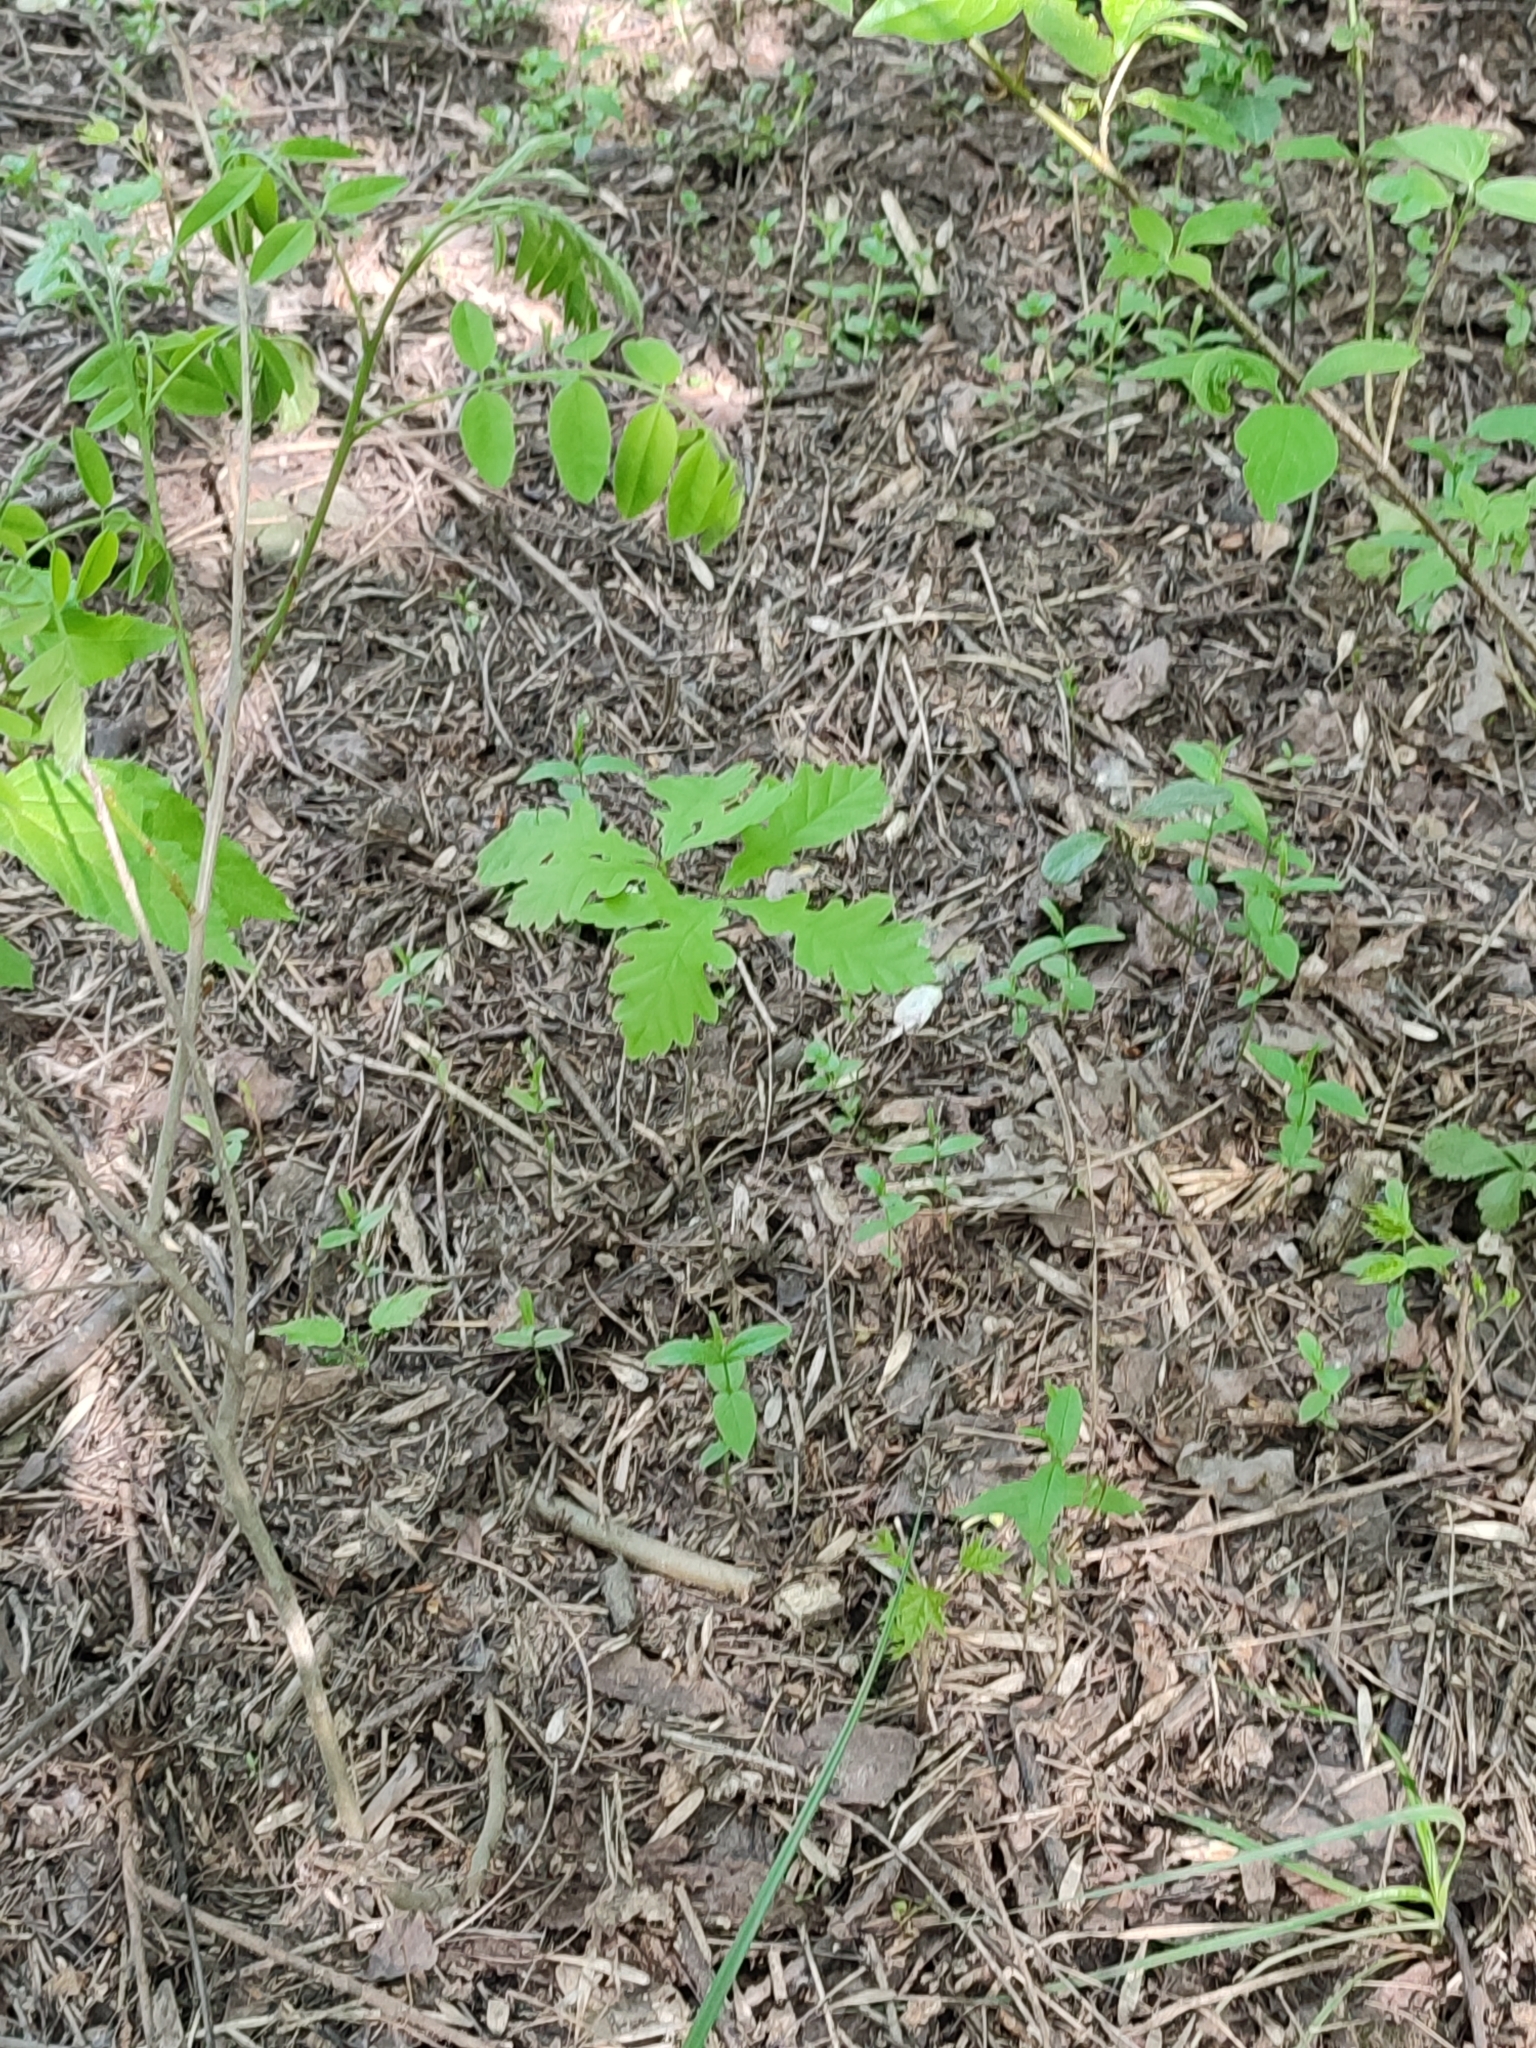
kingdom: Plantae
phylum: Tracheophyta
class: Magnoliopsida
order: Fagales
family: Fagaceae
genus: Quercus
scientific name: Quercus robur
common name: Pedunculate oak
